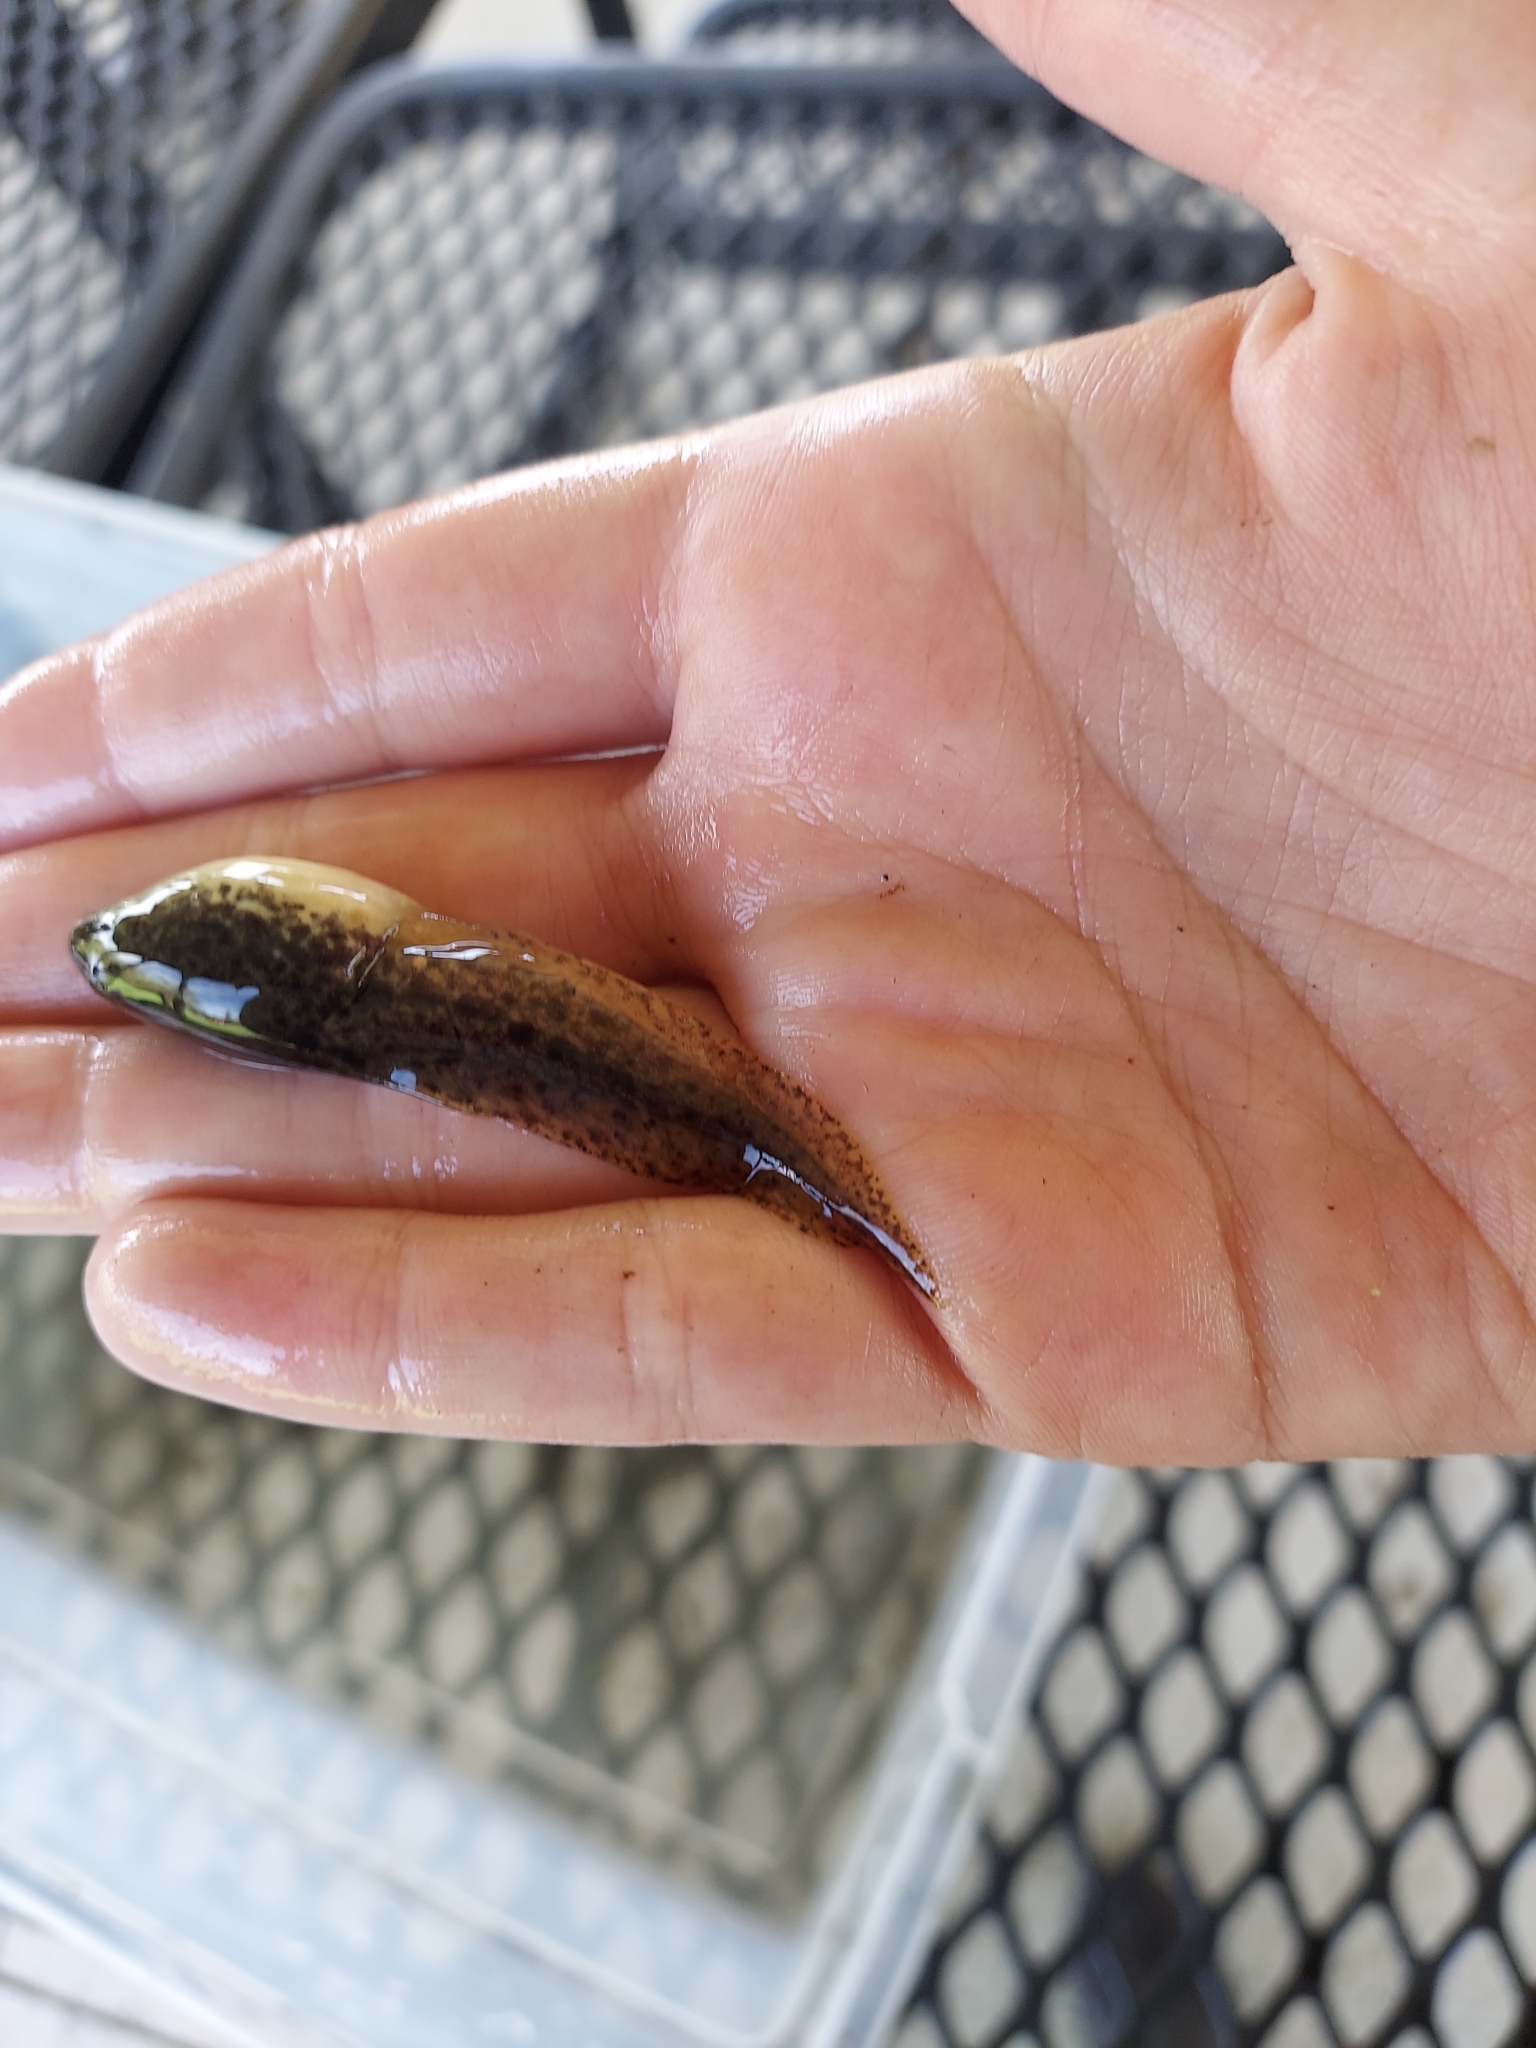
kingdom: Animalia
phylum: Chordata
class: Amphibia
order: Anura
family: Ranidae
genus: Lithobates
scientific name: Lithobates clamitans
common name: Green frog
